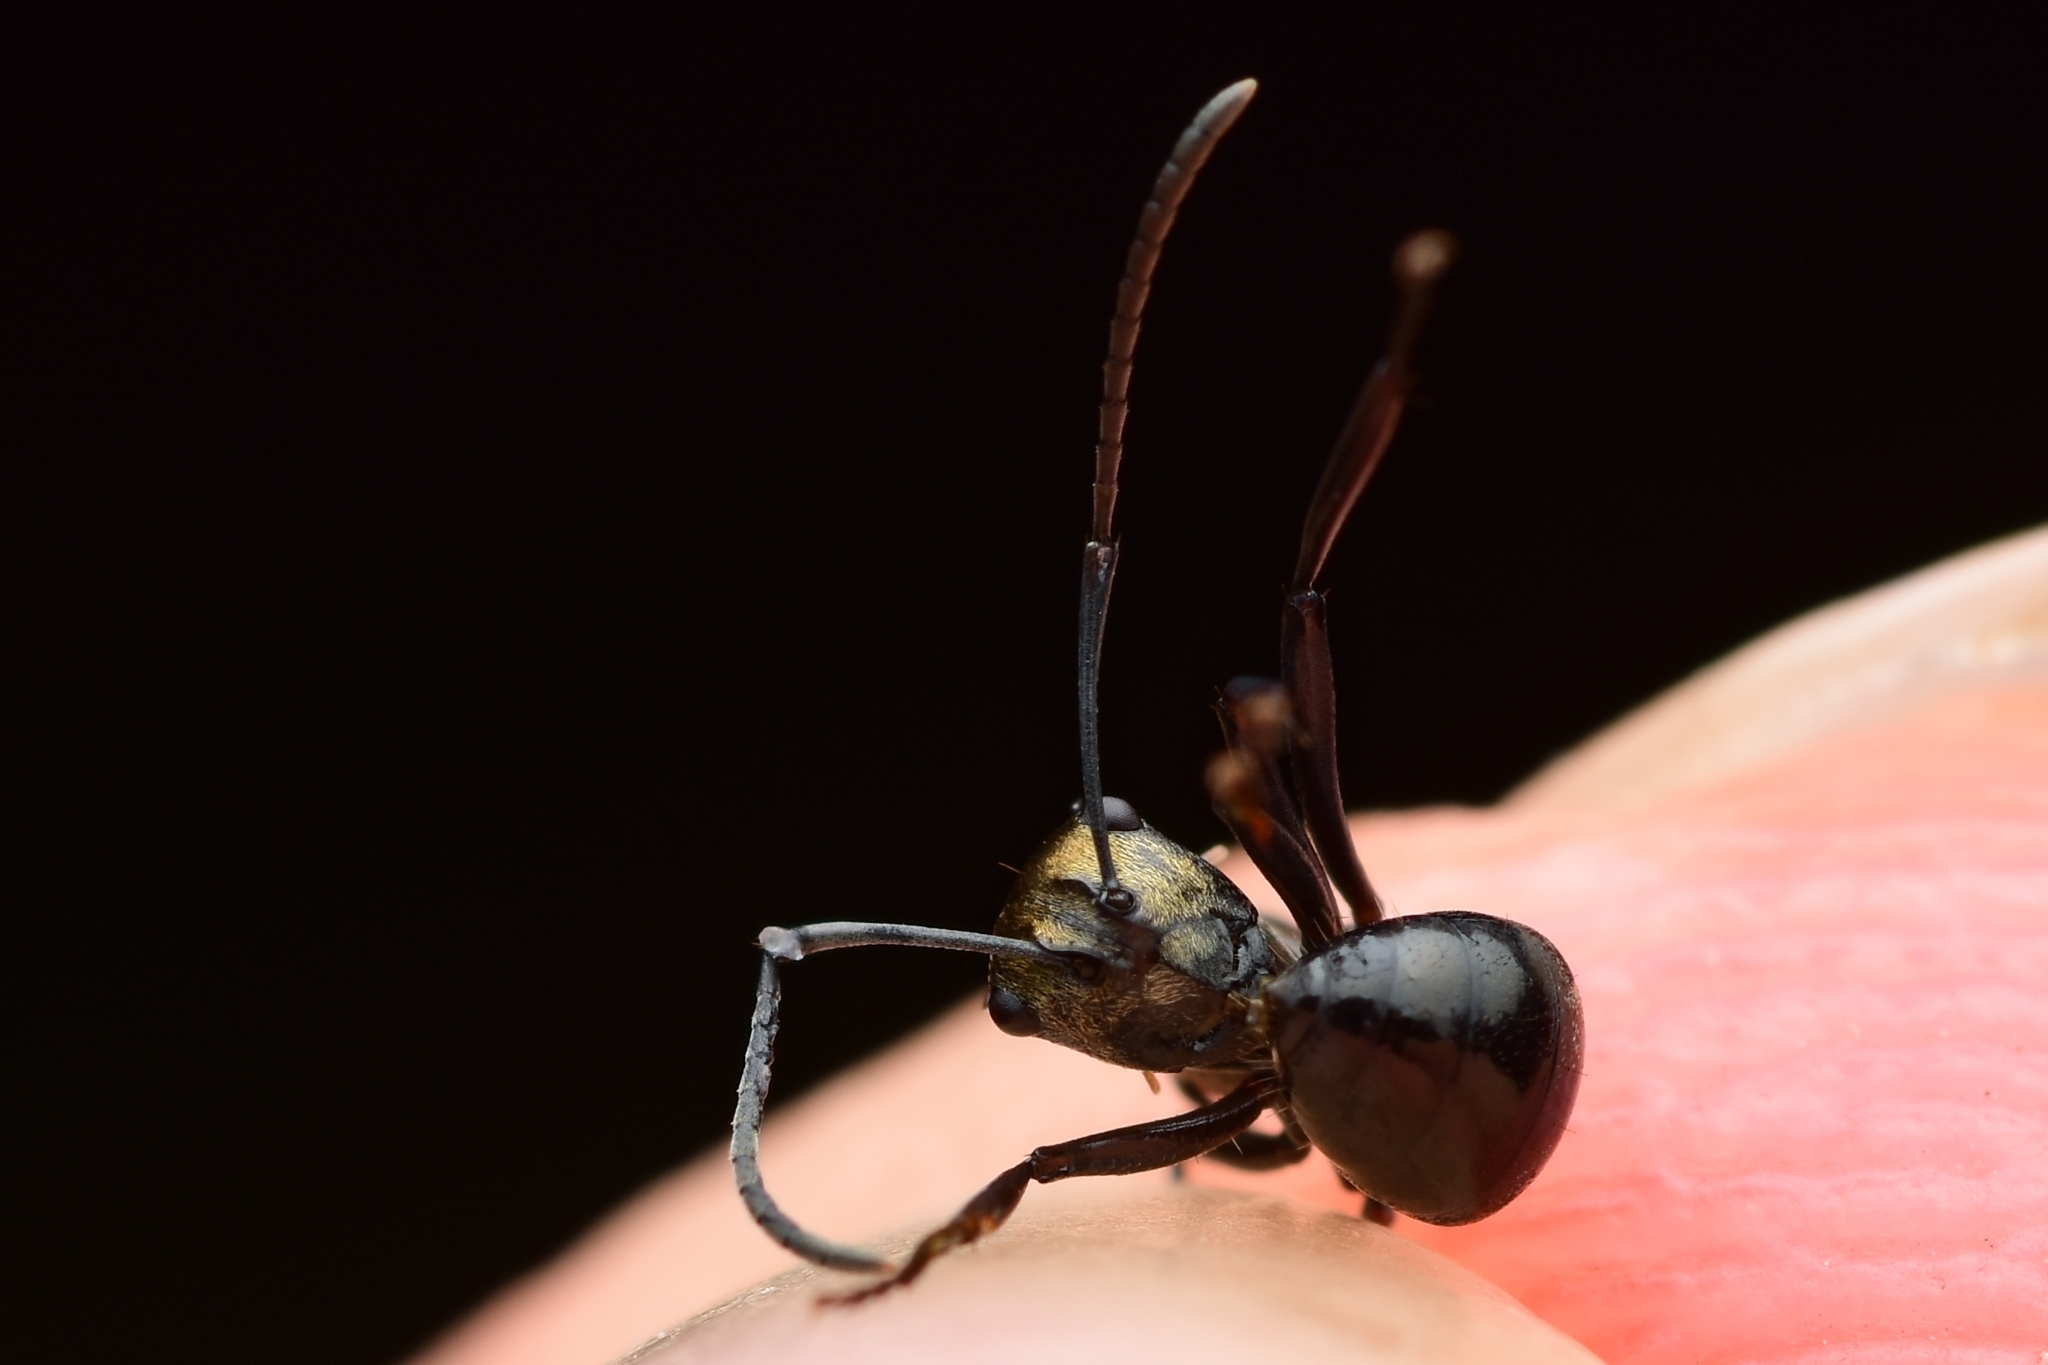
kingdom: Animalia
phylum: Arthropoda
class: Insecta
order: Hymenoptera
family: Formicidae
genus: Polyrhachis
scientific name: Polyrhachis cleopatra
